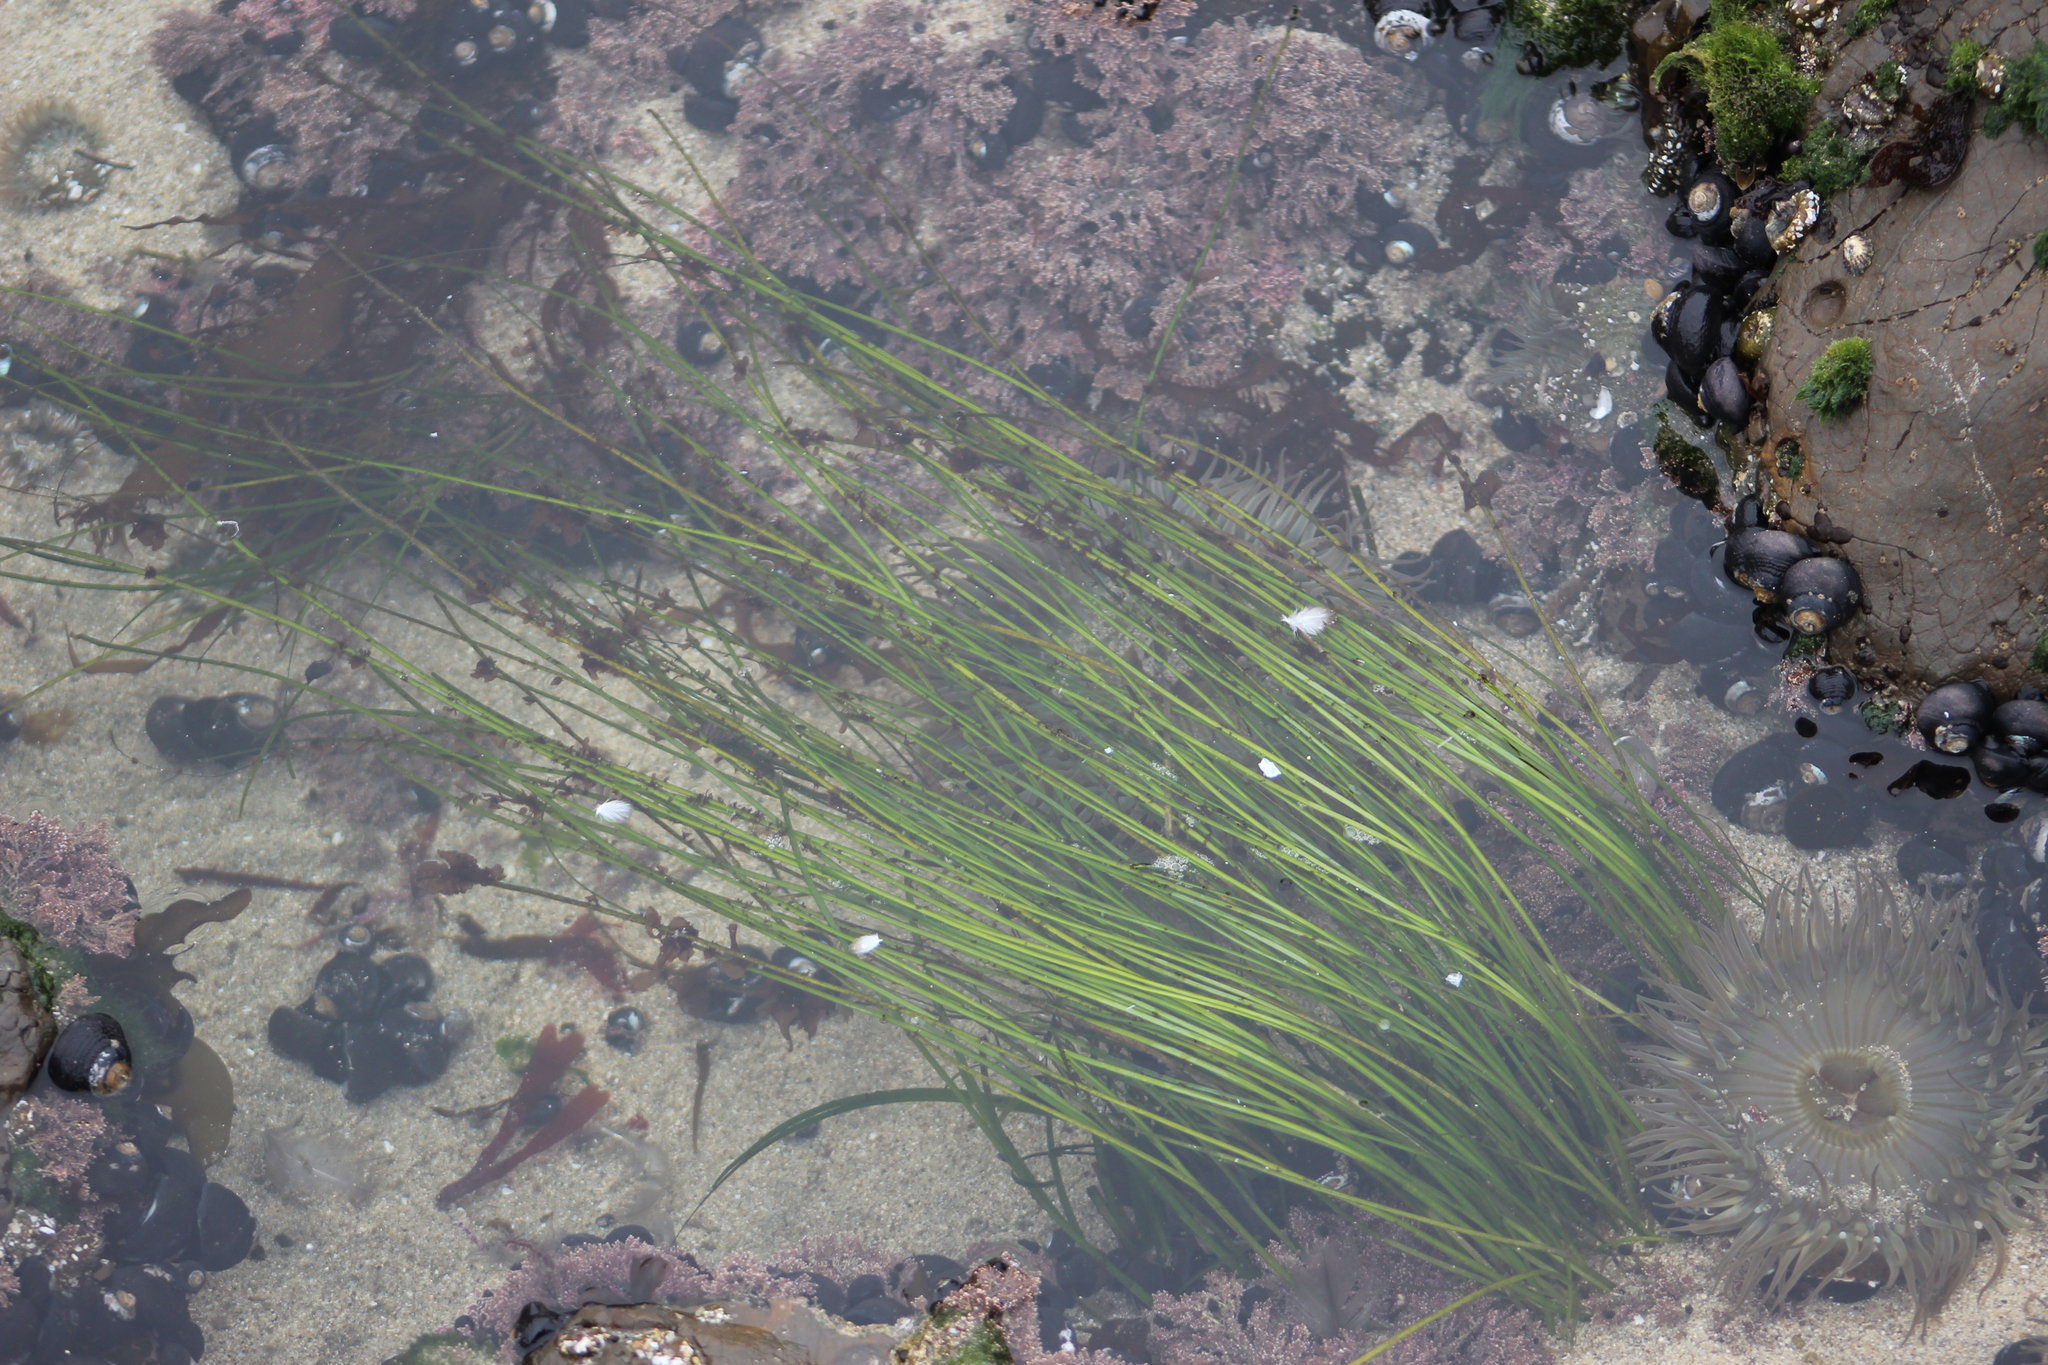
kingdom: Plantae
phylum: Tracheophyta
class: Liliopsida
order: Alismatales
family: Zosteraceae
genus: Phyllospadix
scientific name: Phyllospadix torreyi
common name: Surfgrass
